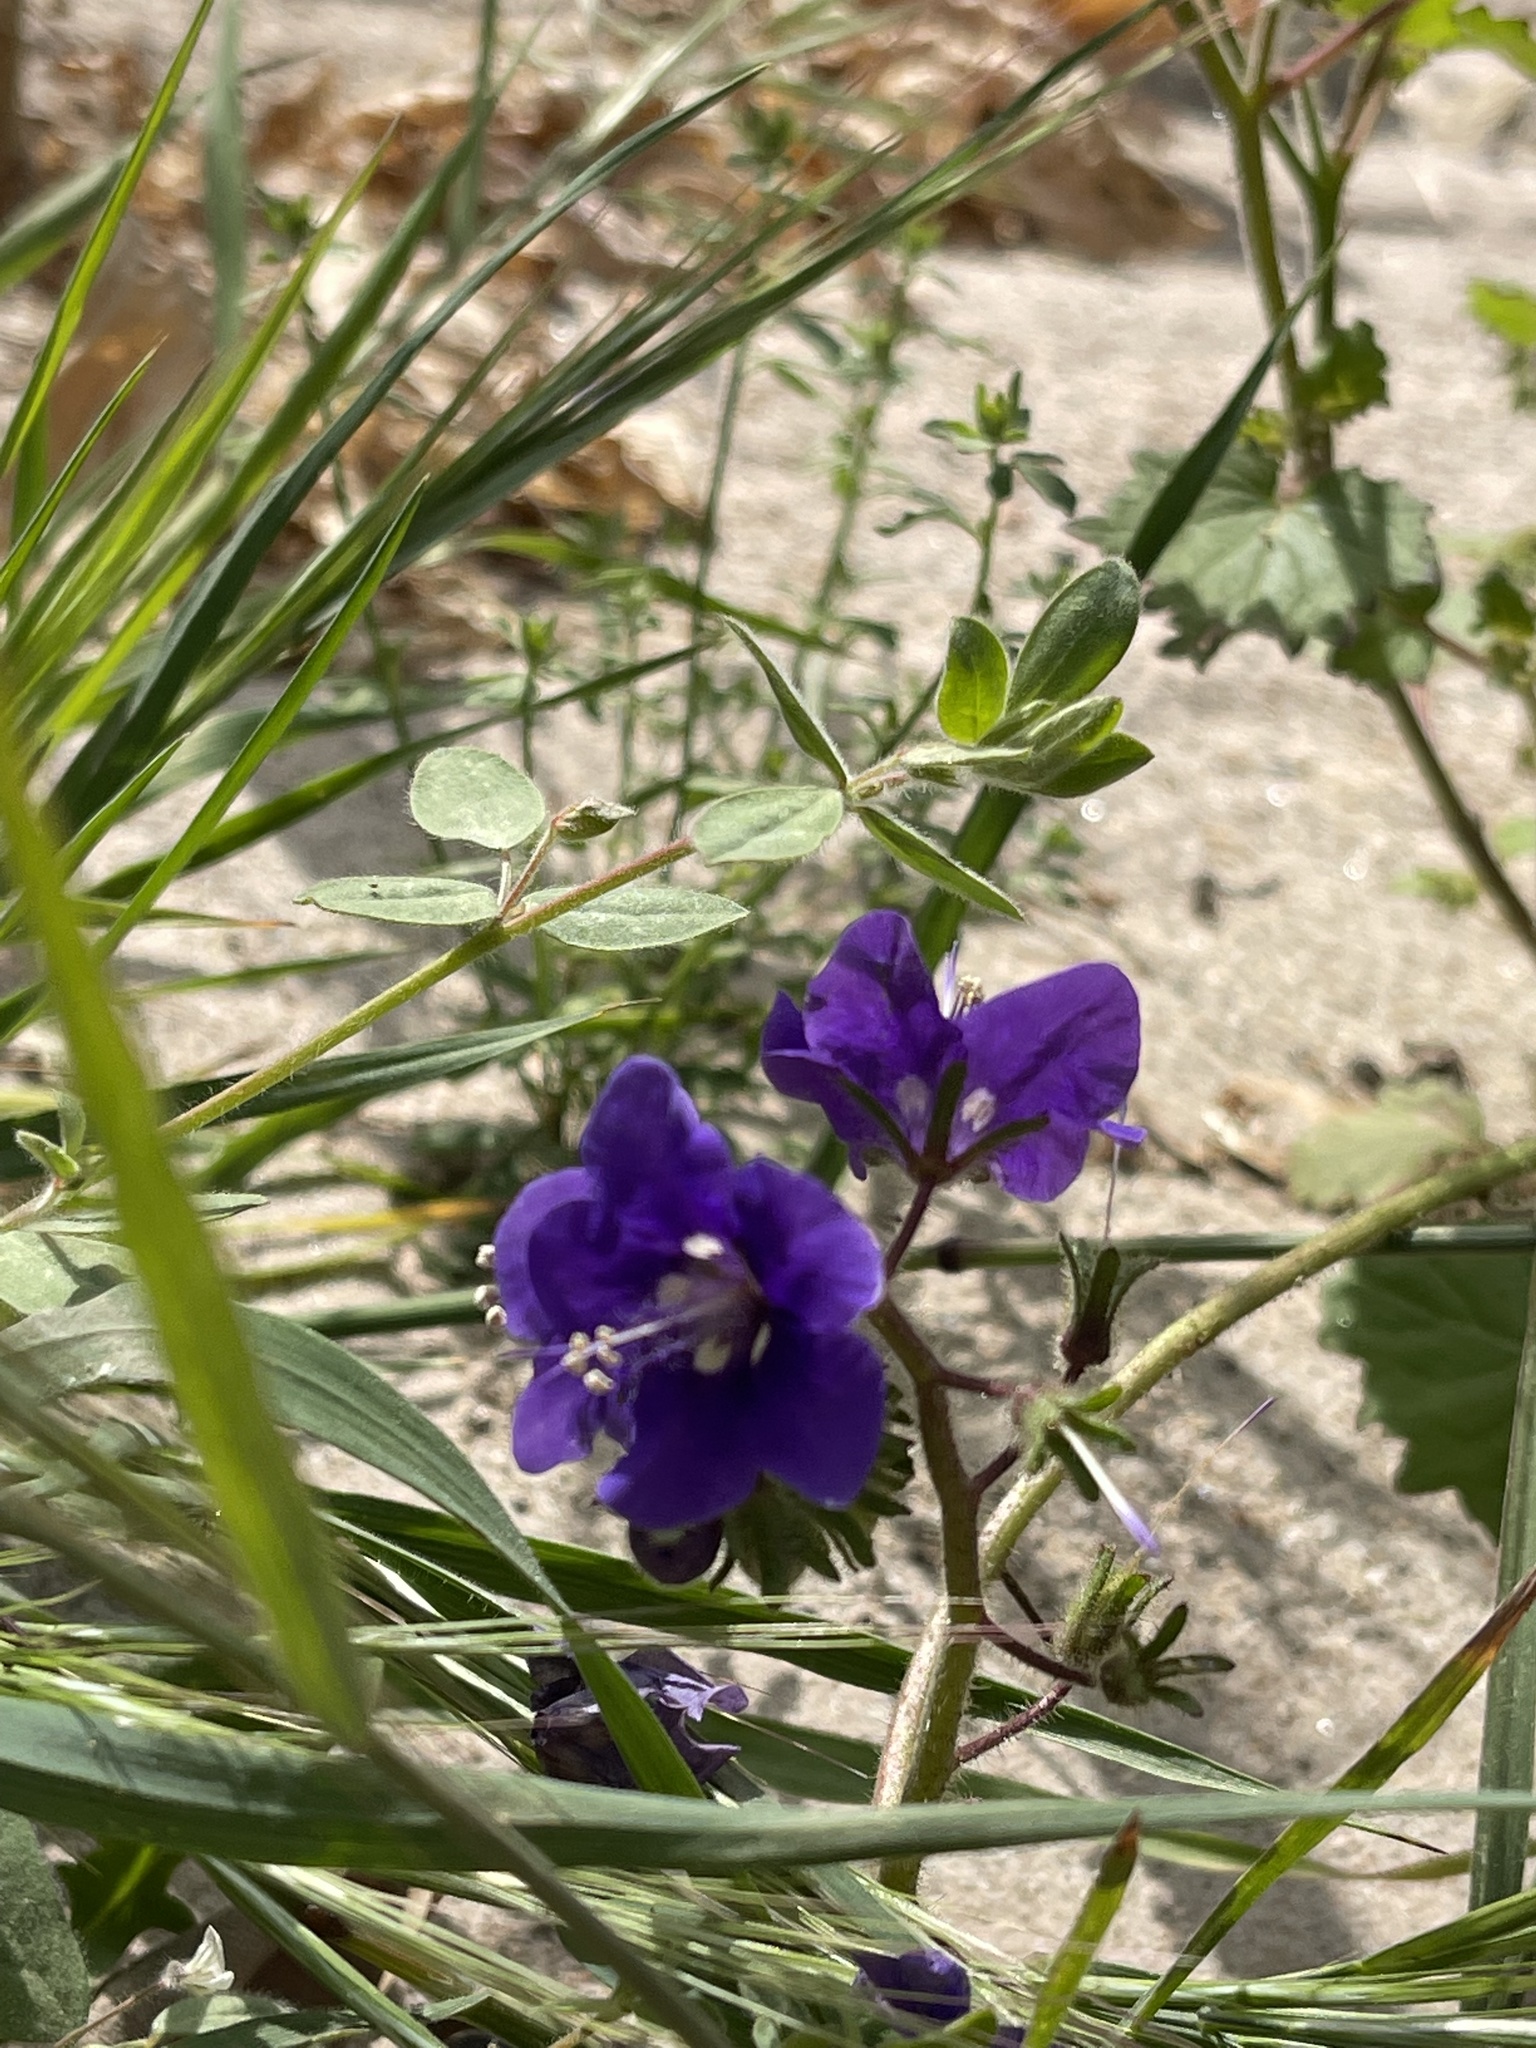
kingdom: Plantae
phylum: Tracheophyta
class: Magnoliopsida
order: Boraginales
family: Hydrophyllaceae
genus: Phacelia
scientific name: Phacelia parryi
